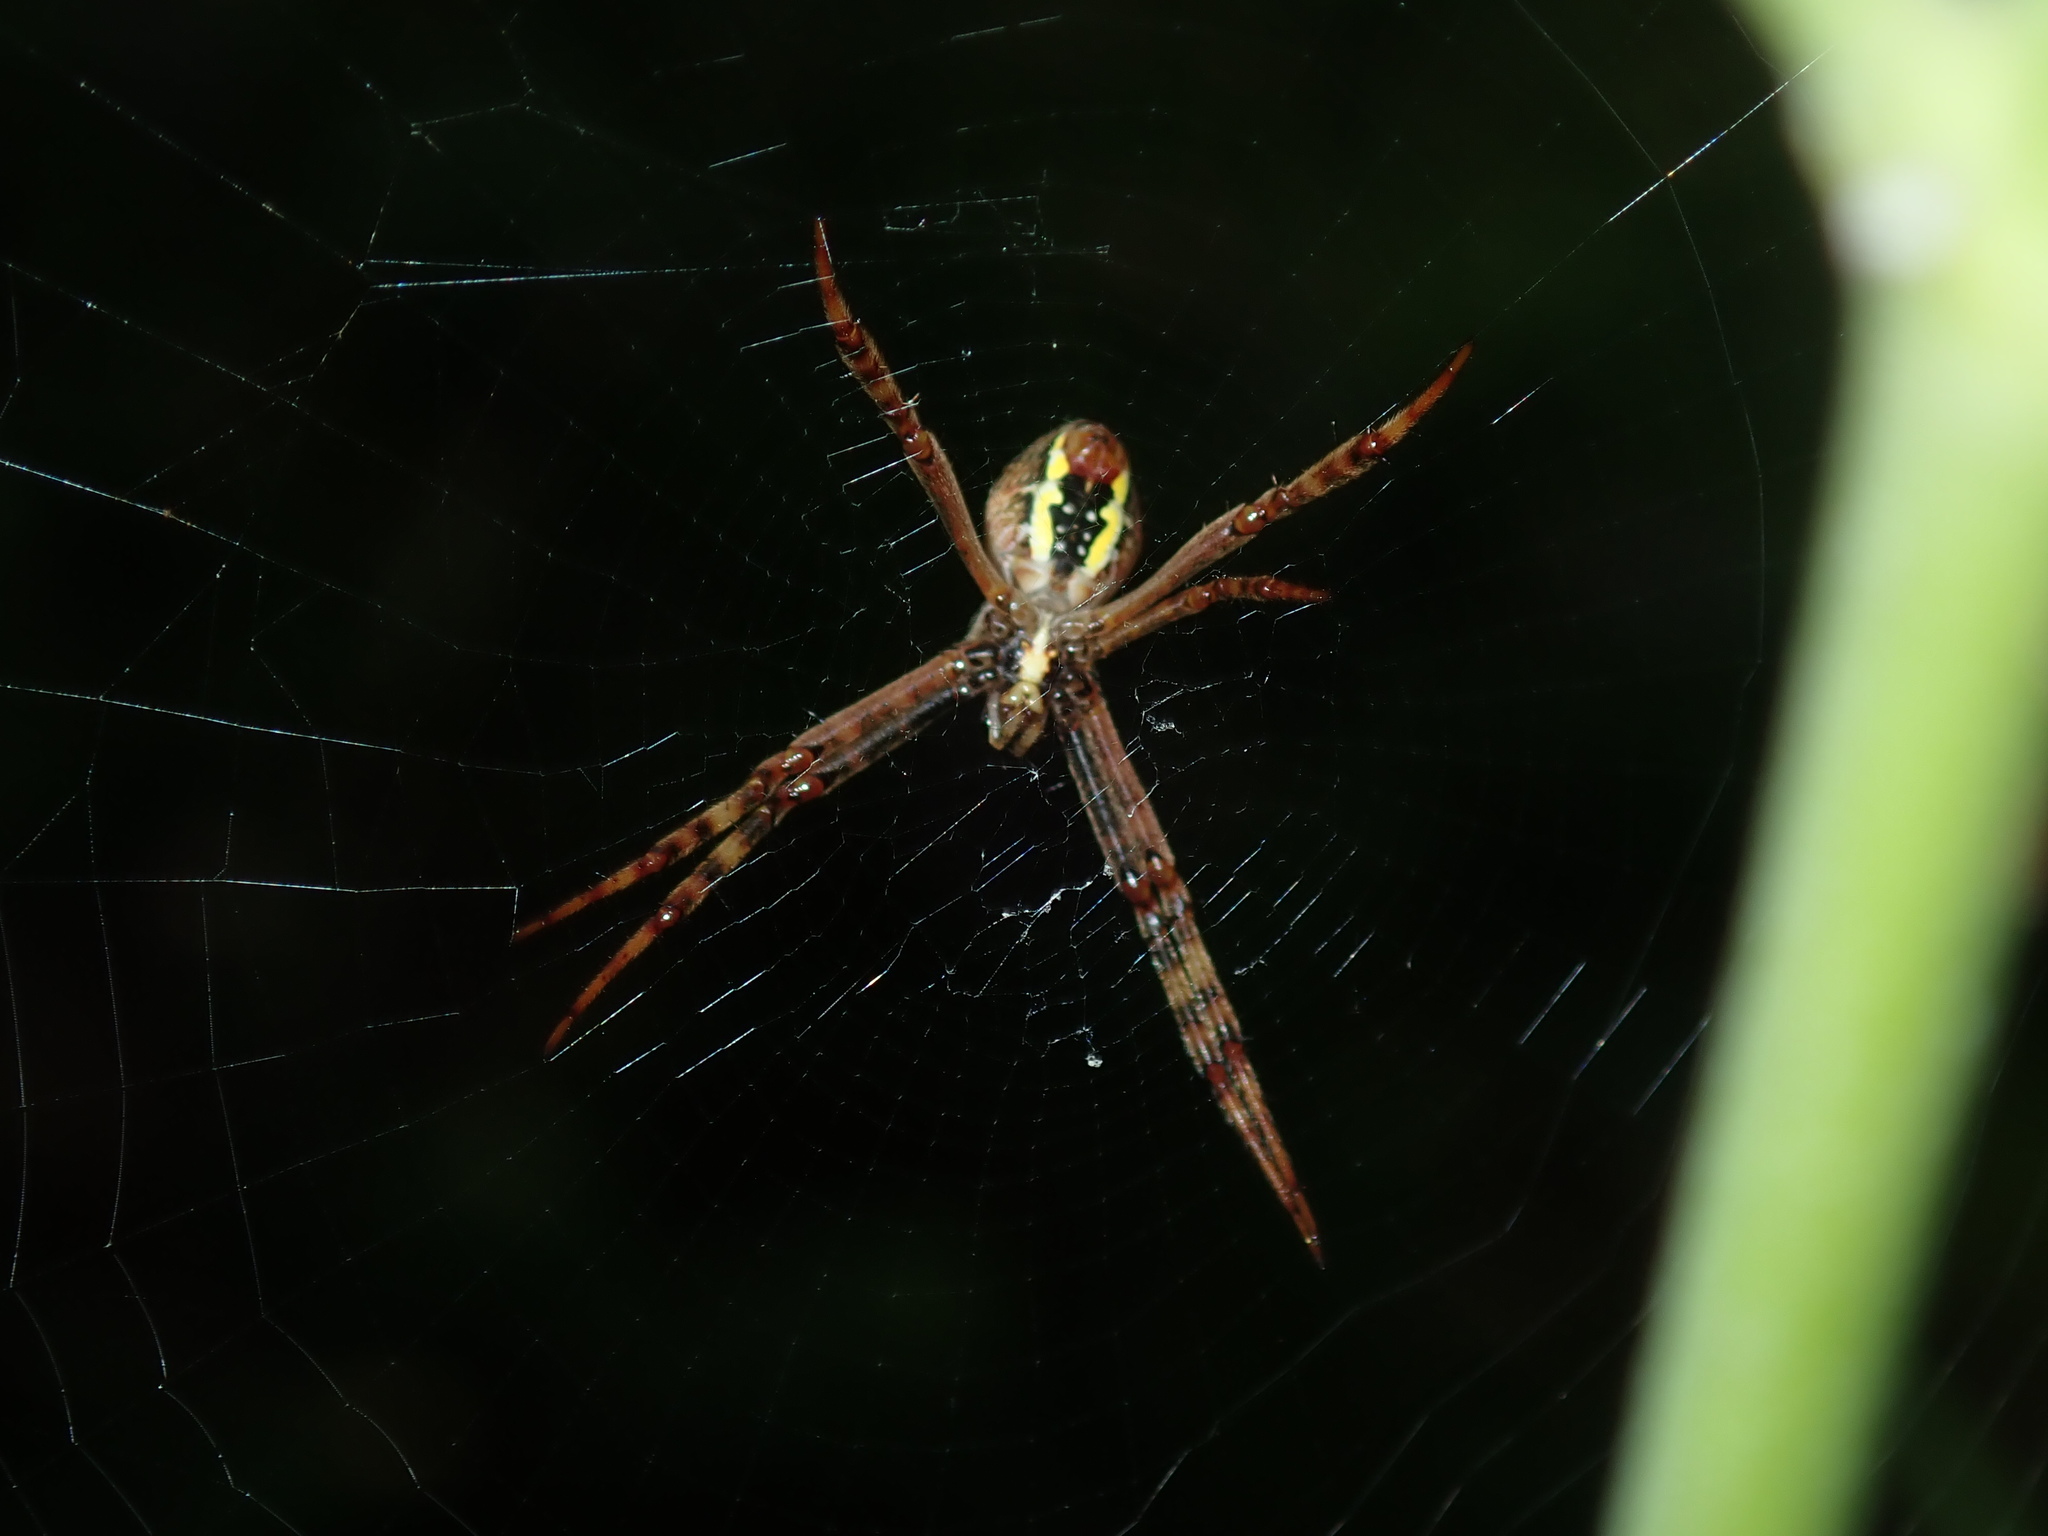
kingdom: Animalia
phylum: Arthropoda
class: Arachnida
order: Araneae
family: Araneidae
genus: Argiope
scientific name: Argiope keyserlingi
